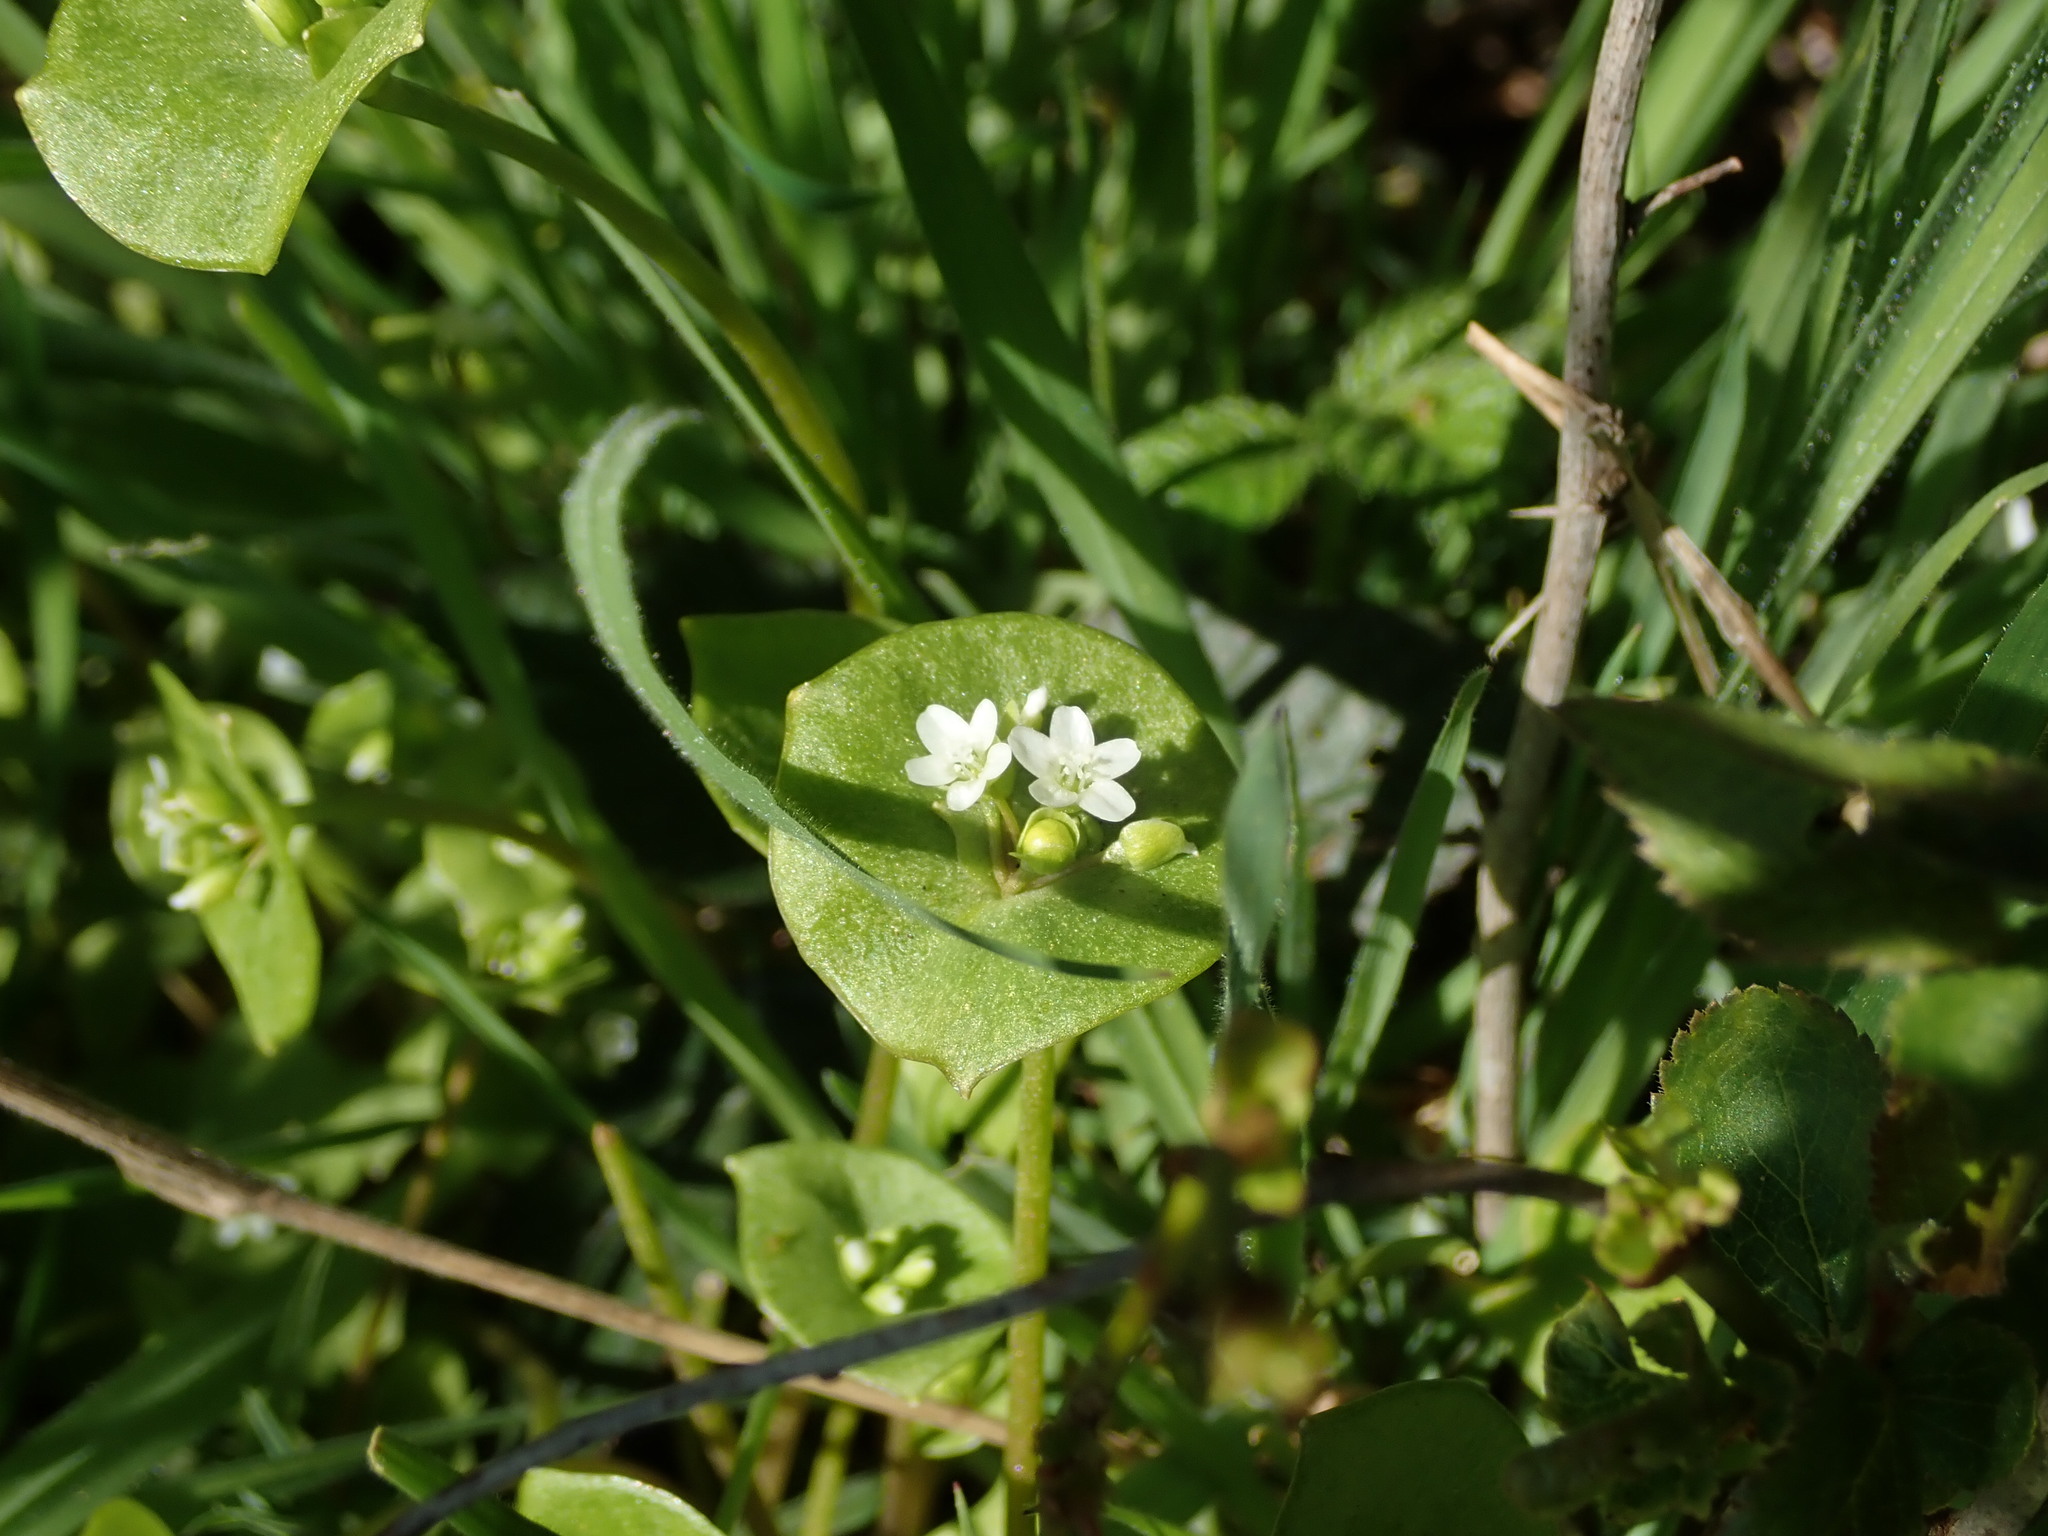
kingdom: Plantae
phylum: Tracheophyta
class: Magnoliopsida
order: Caryophyllales
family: Montiaceae
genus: Claytonia
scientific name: Claytonia perfoliata
